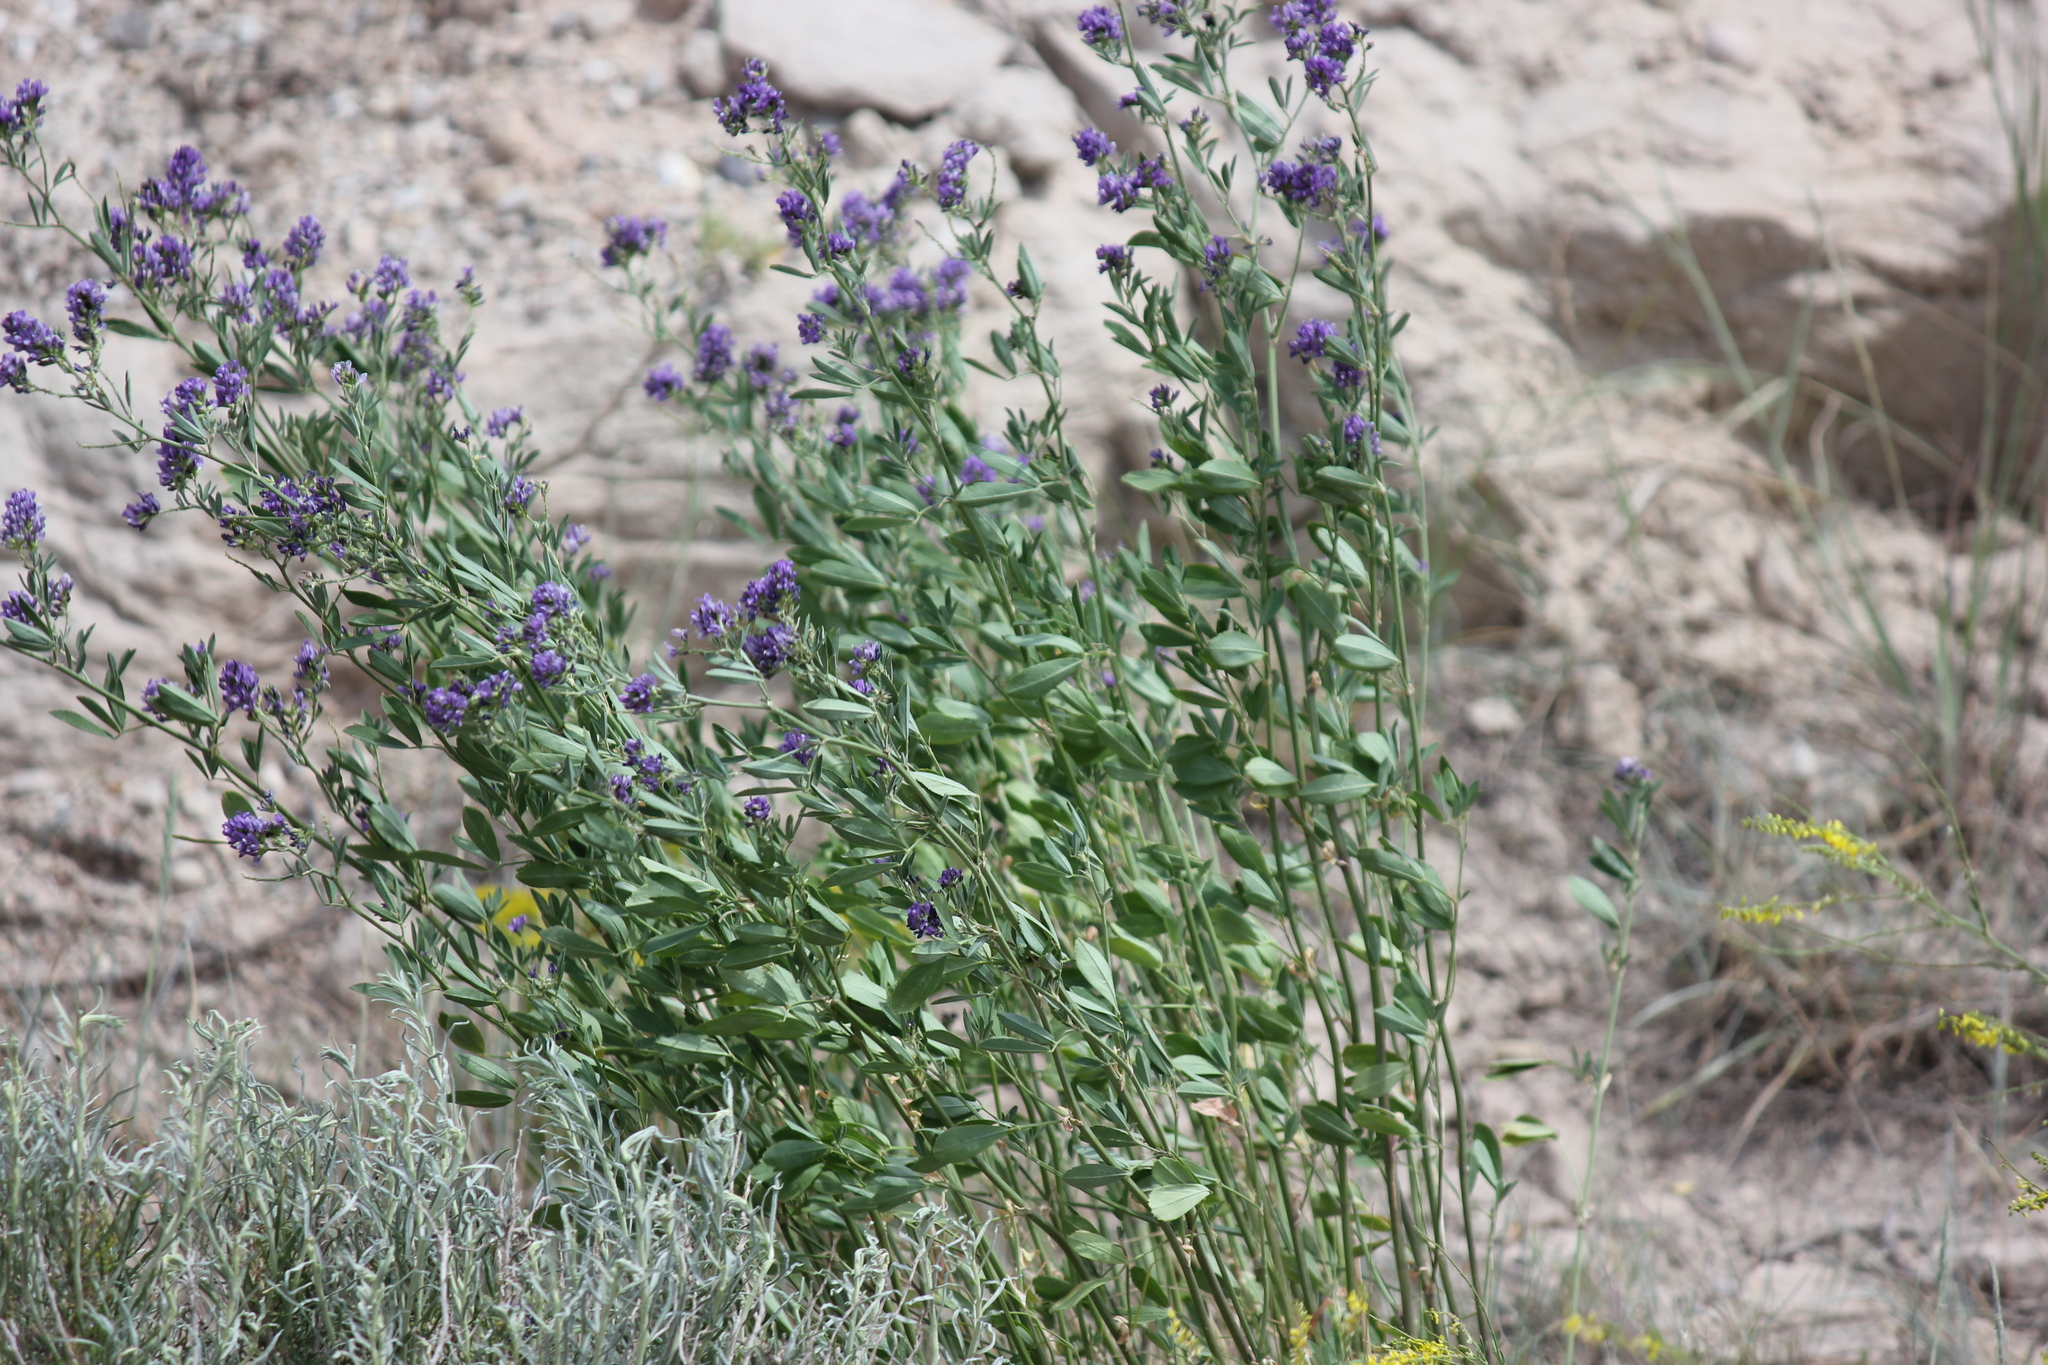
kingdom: Plantae
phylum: Tracheophyta
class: Magnoliopsida
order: Fabales
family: Fabaceae
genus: Medicago
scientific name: Medicago sativa
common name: Alfalfa
